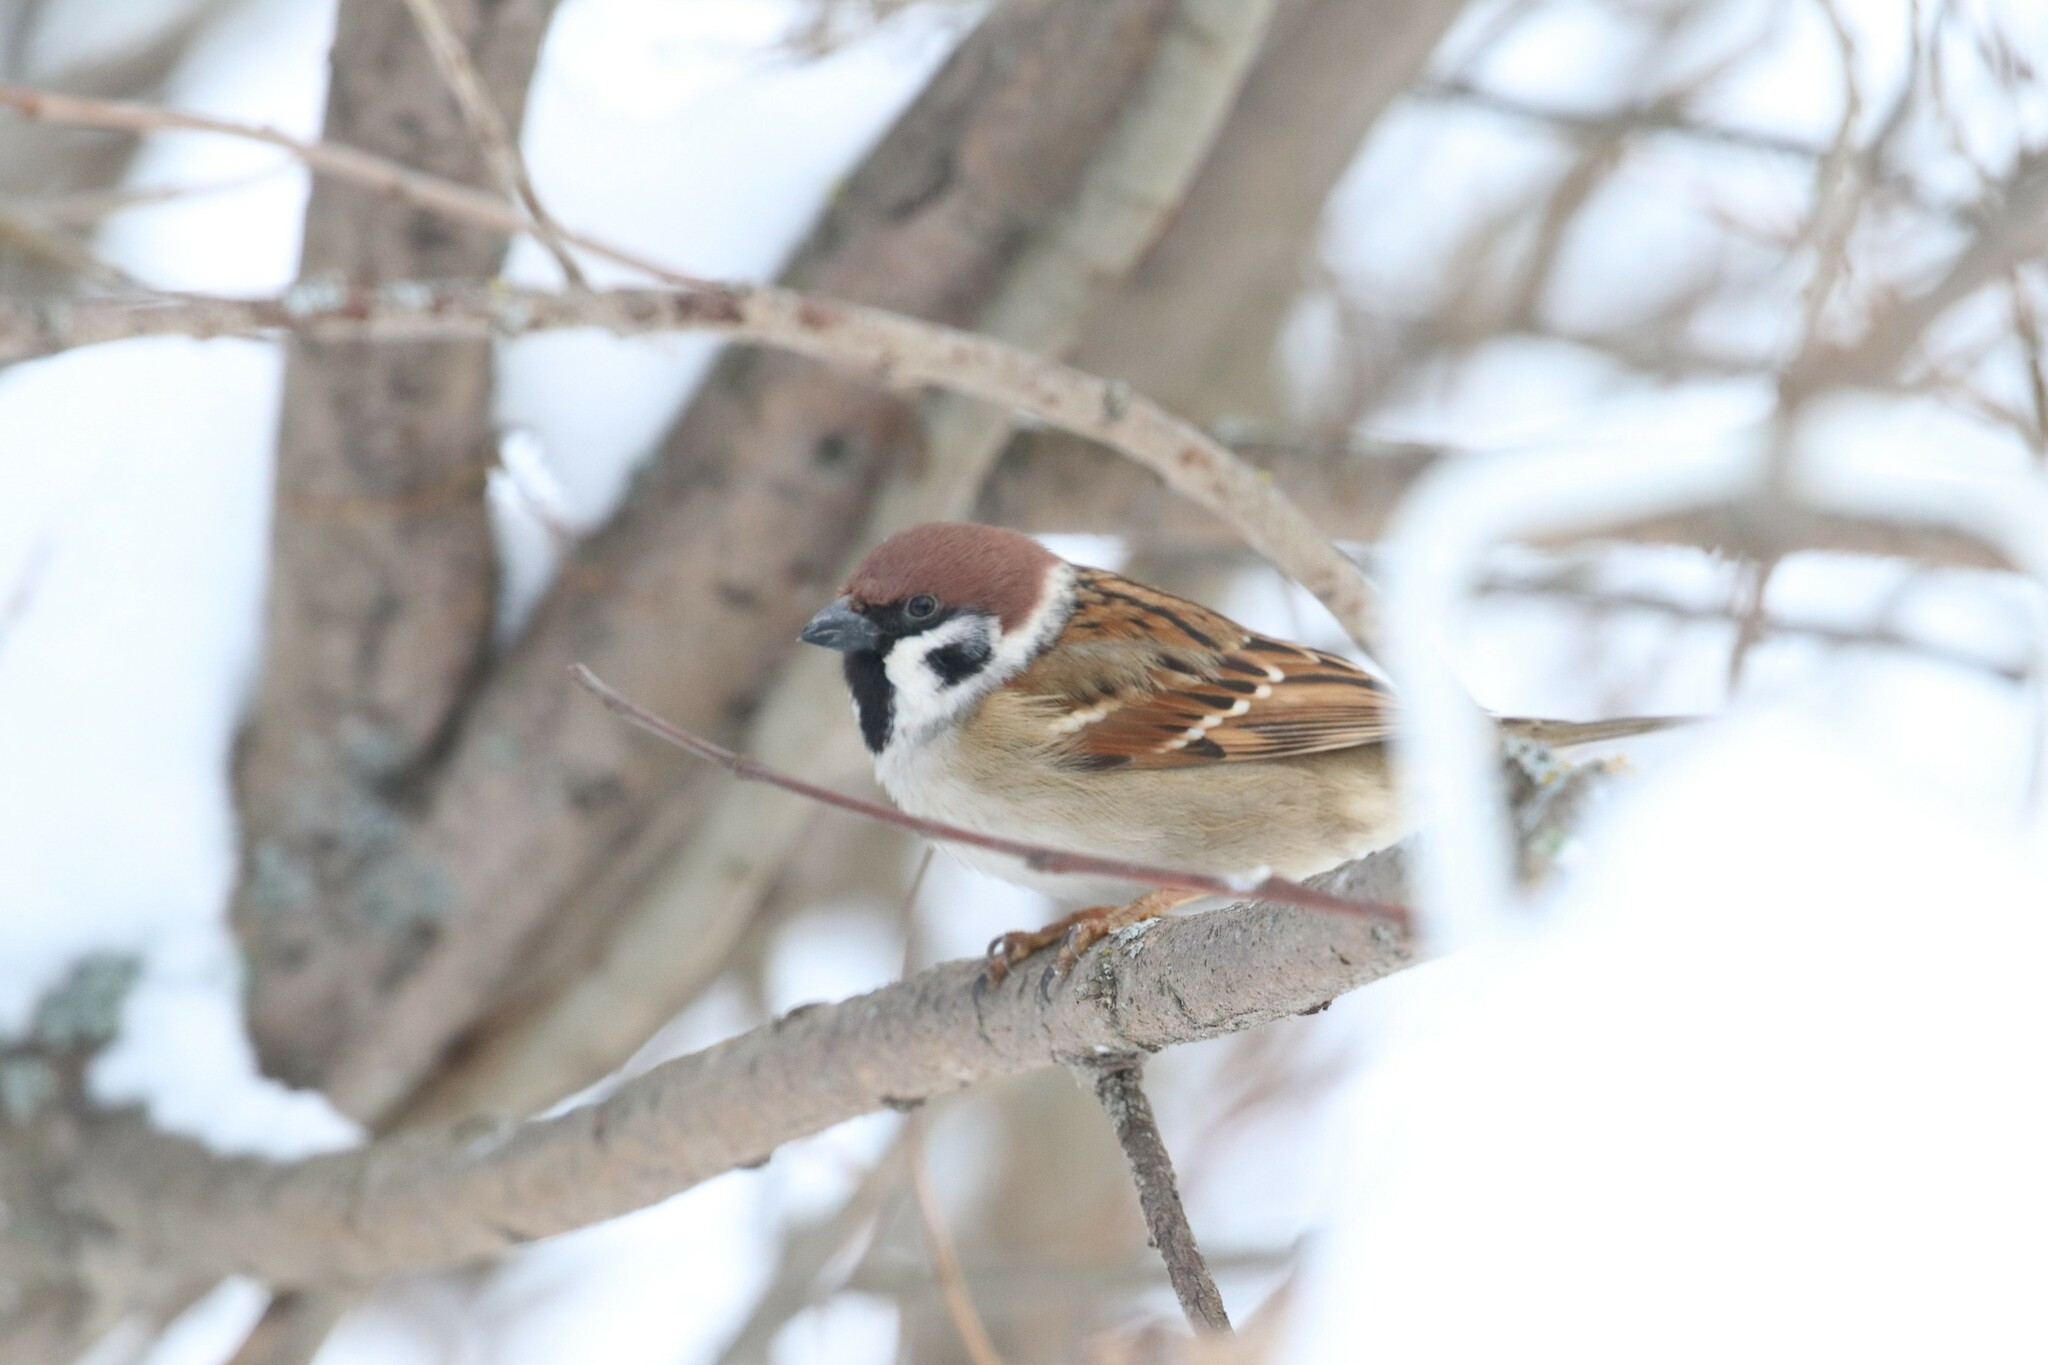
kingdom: Animalia
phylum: Chordata
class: Aves
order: Passeriformes
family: Passeridae
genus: Passer
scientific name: Passer montanus
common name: Eurasian tree sparrow
